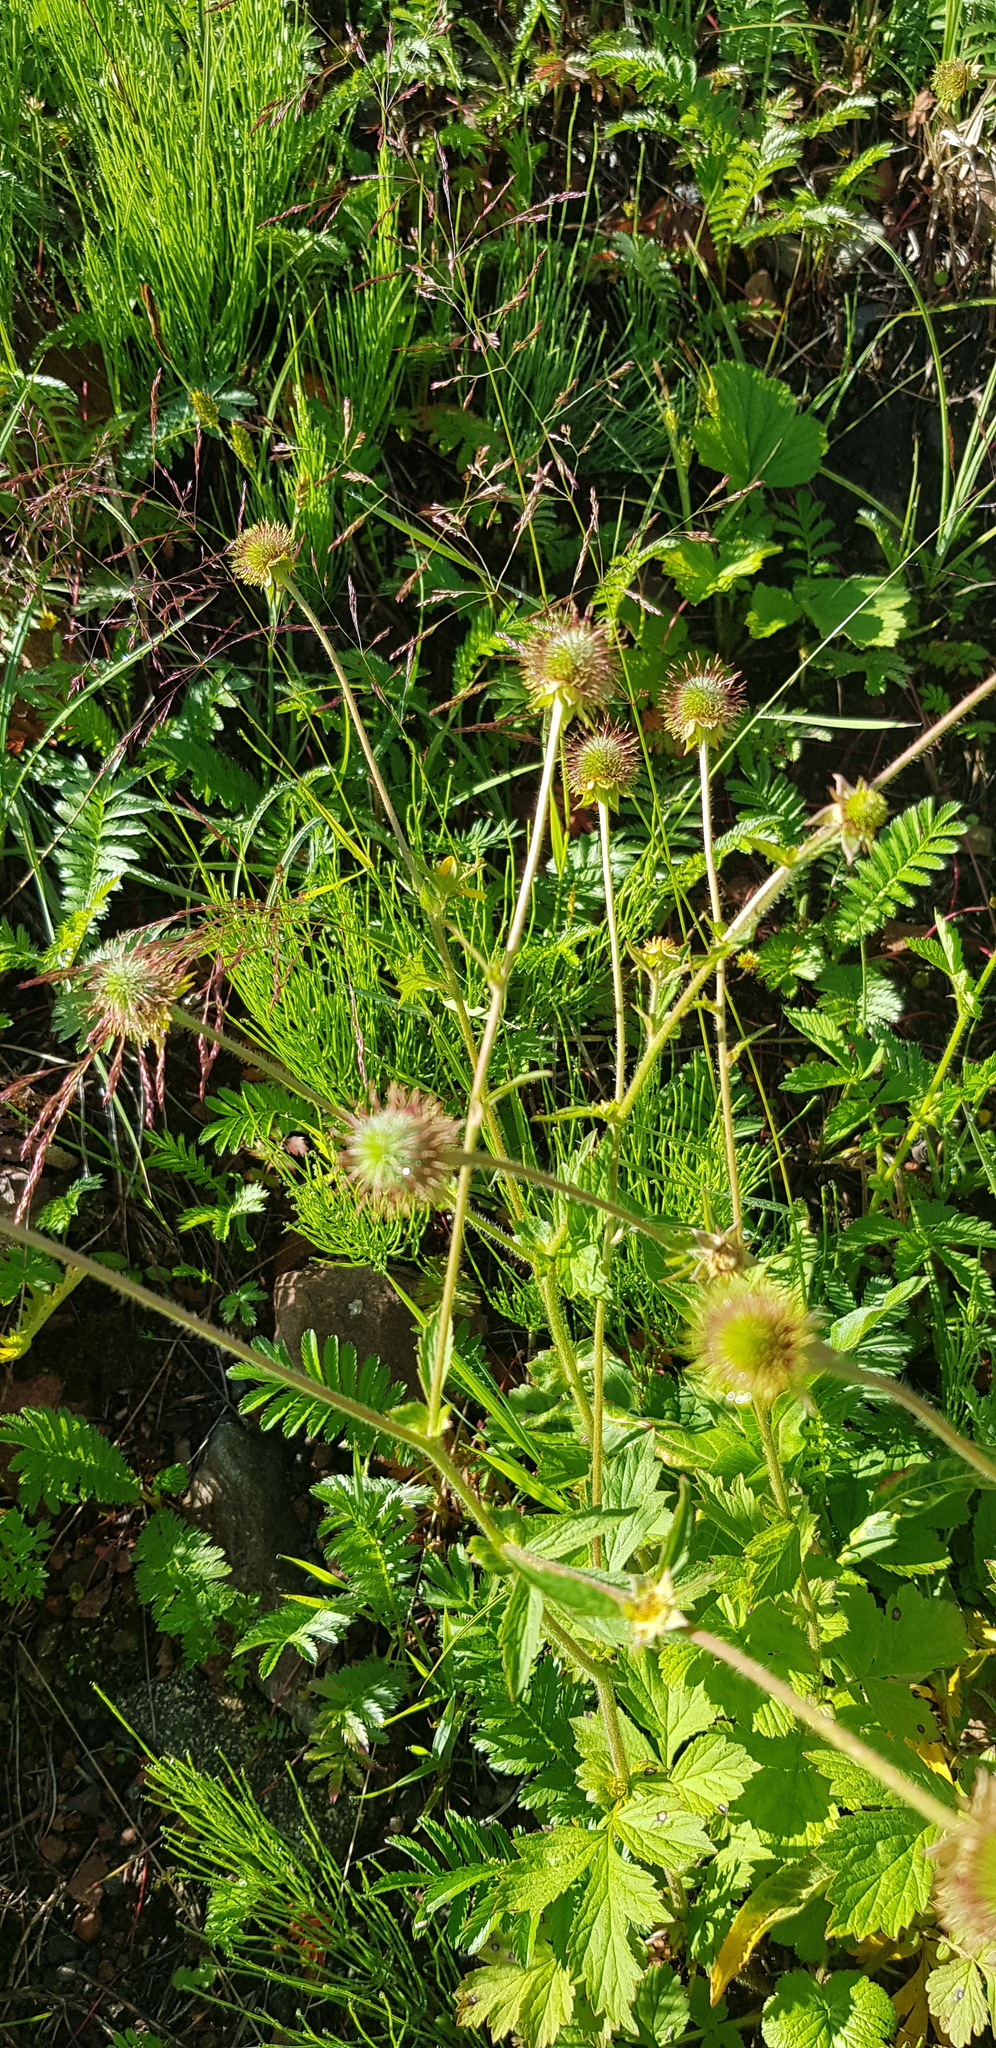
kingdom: Plantae
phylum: Tracheophyta
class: Magnoliopsida
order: Rosales
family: Rosaceae
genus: Geum
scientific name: Geum aleppicum
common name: Yellow avens
